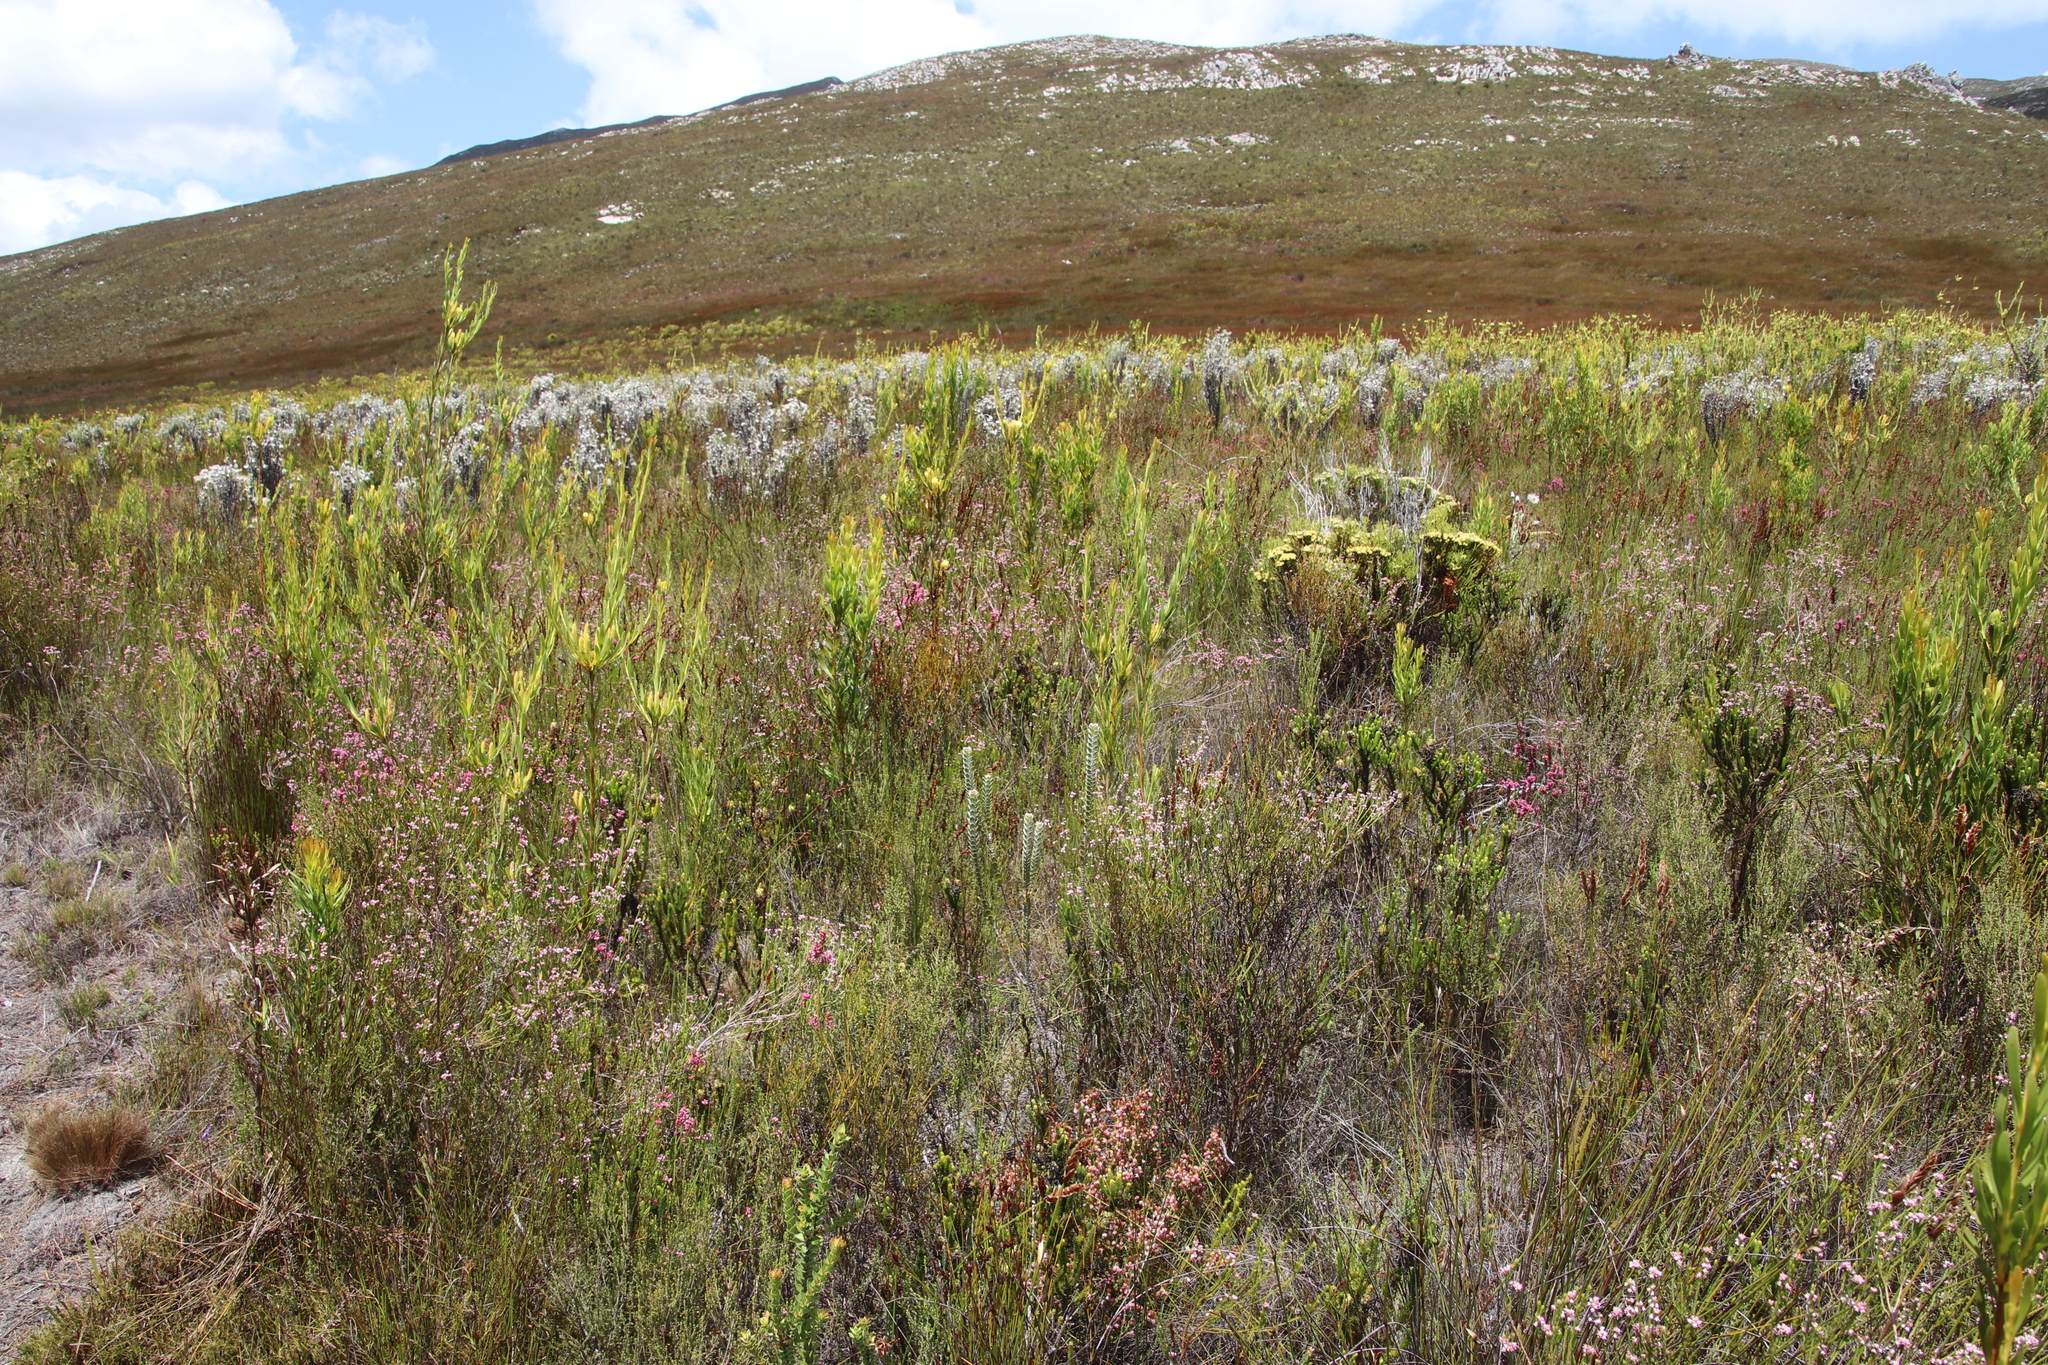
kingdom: Plantae
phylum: Tracheophyta
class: Magnoliopsida
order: Ericales
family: Ericaceae
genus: Erica
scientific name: Erica corifolia
